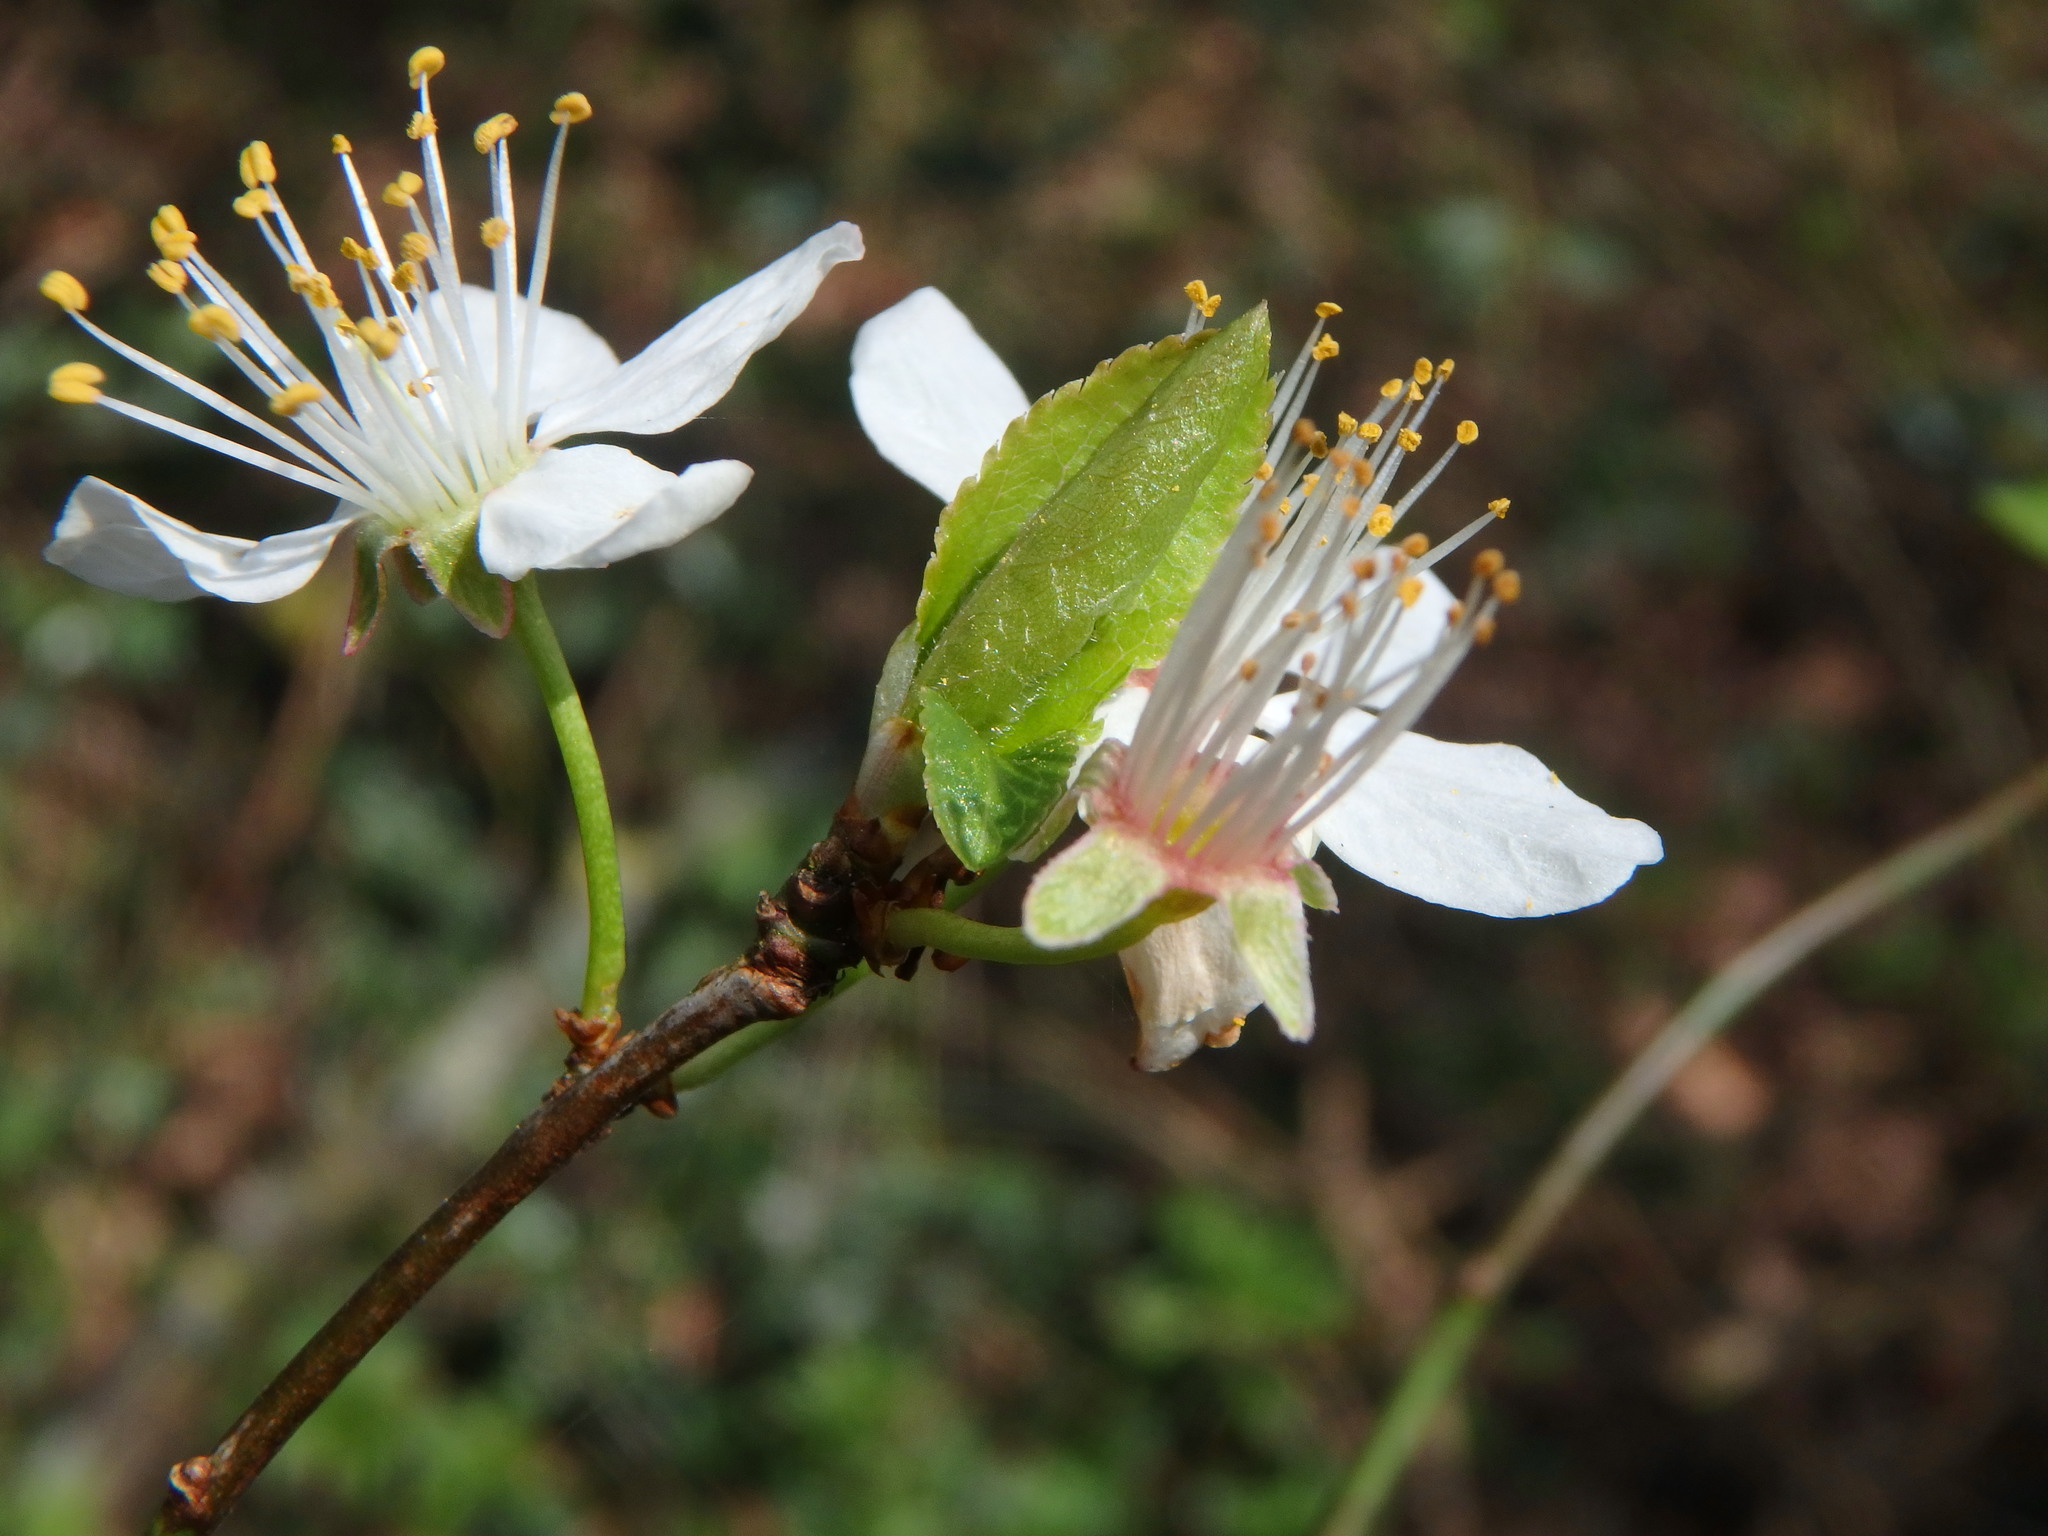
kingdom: Plantae
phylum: Tracheophyta
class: Magnoliopsida
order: Rosales
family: Rosaceae
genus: Prunus
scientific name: Prunus cerasifera
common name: Cherry plum
